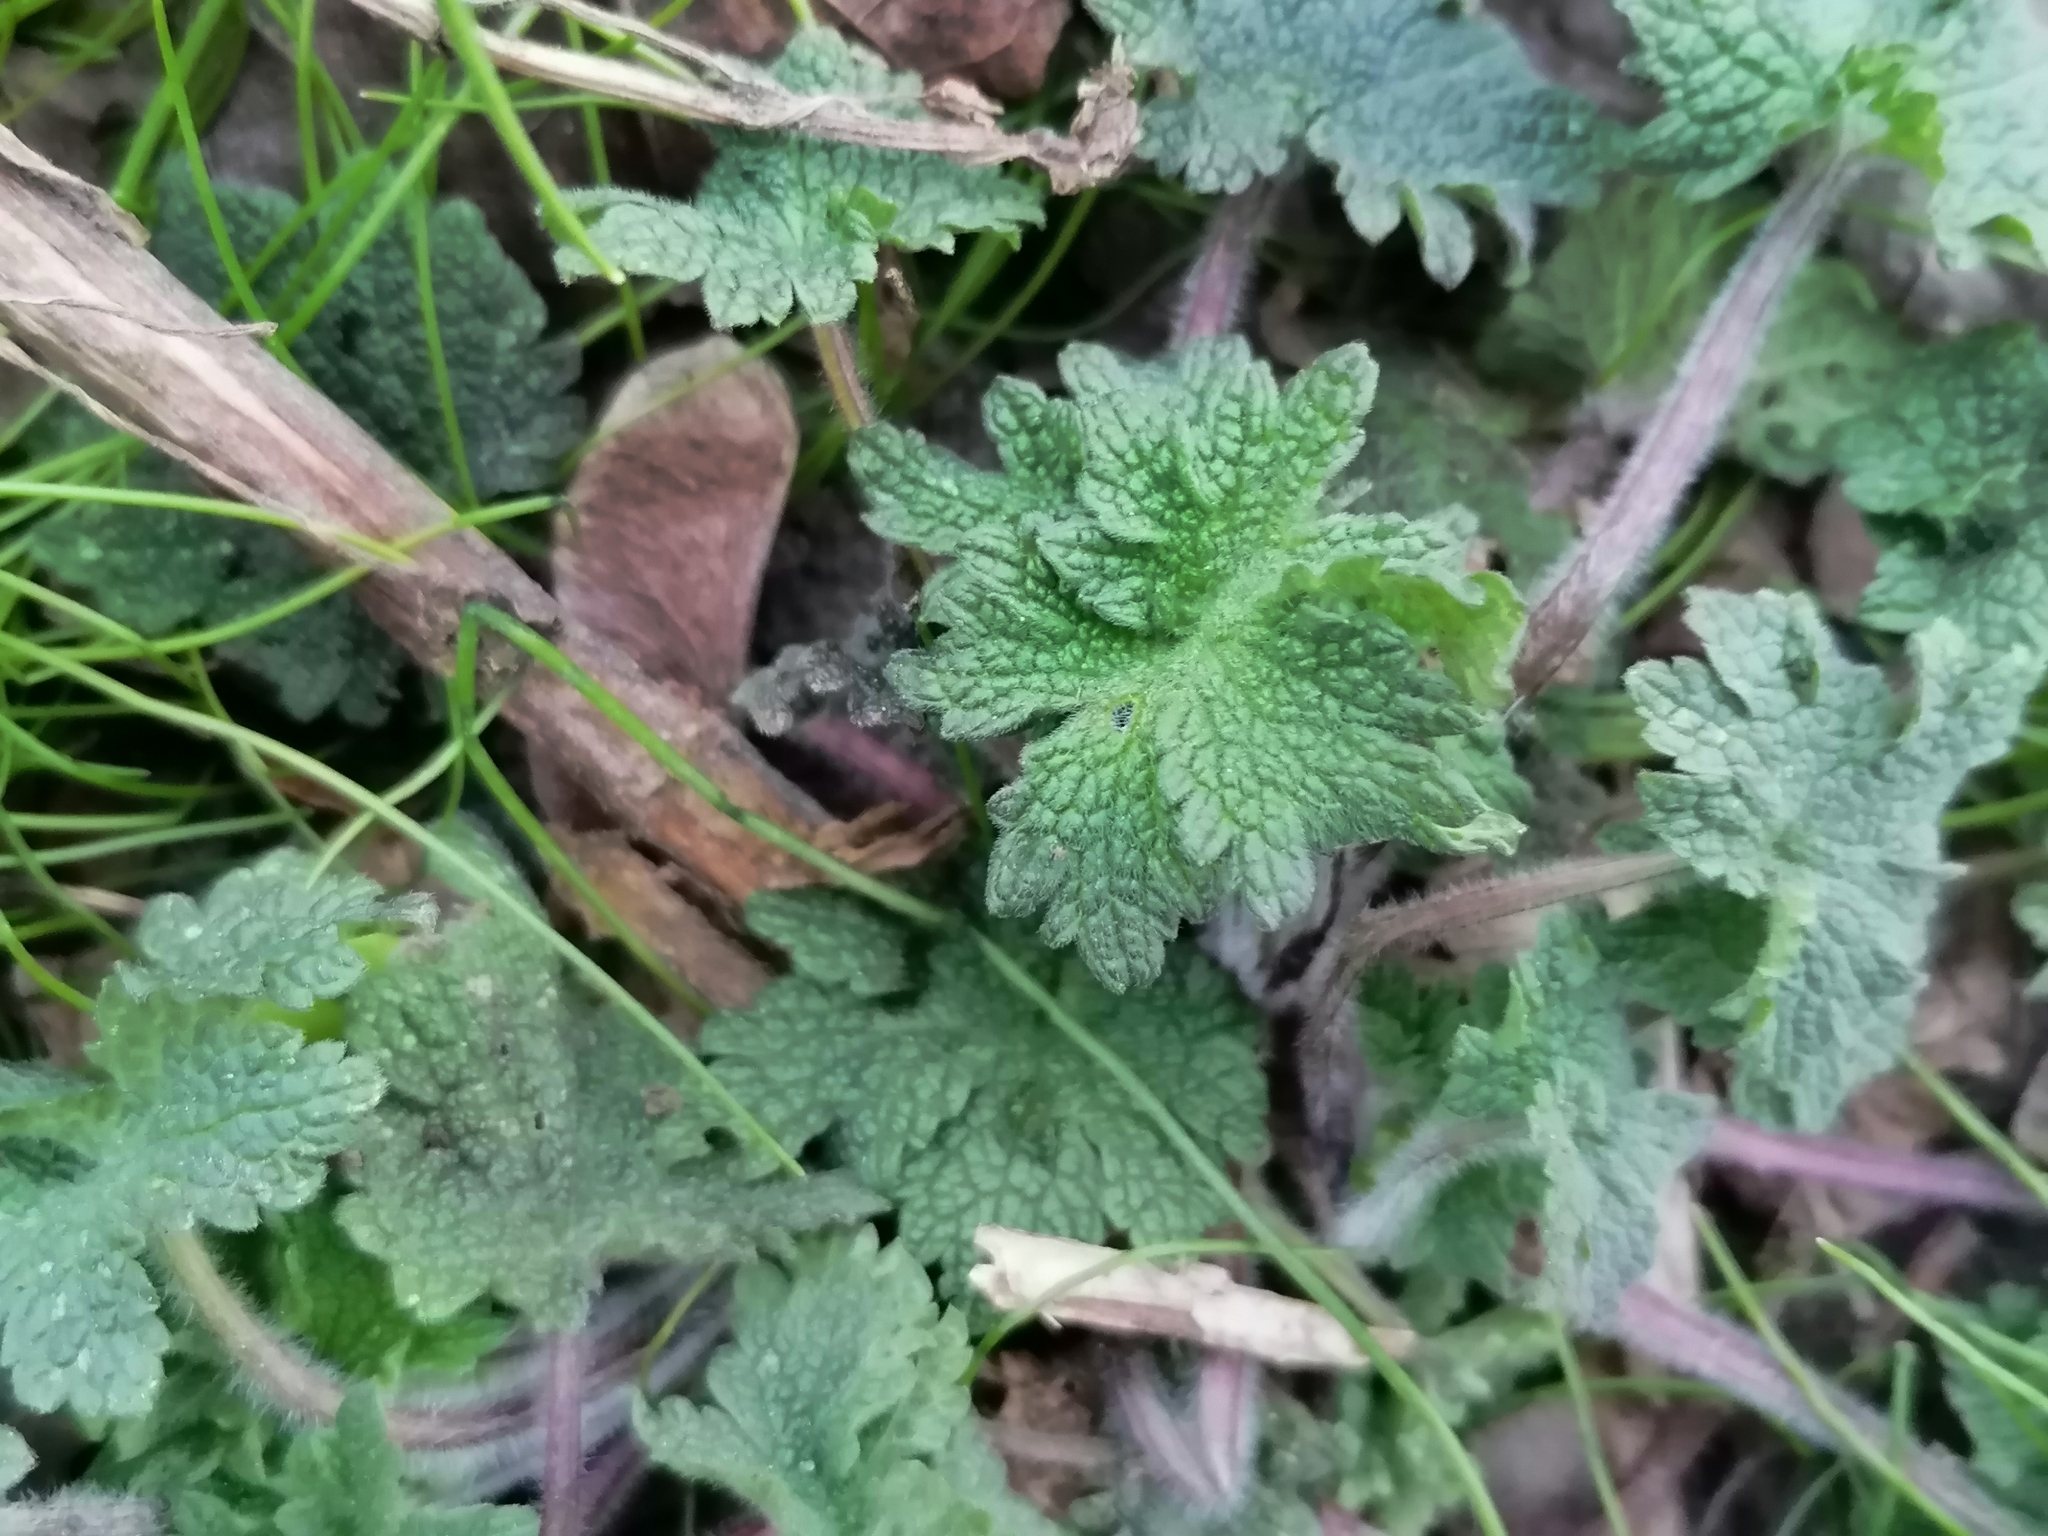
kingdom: Plantae
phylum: Tracheophyta
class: Magnoliopsida
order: Lamiales
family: Lamiaceae
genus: Leonurus
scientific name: Leonurus quinquelobatus
